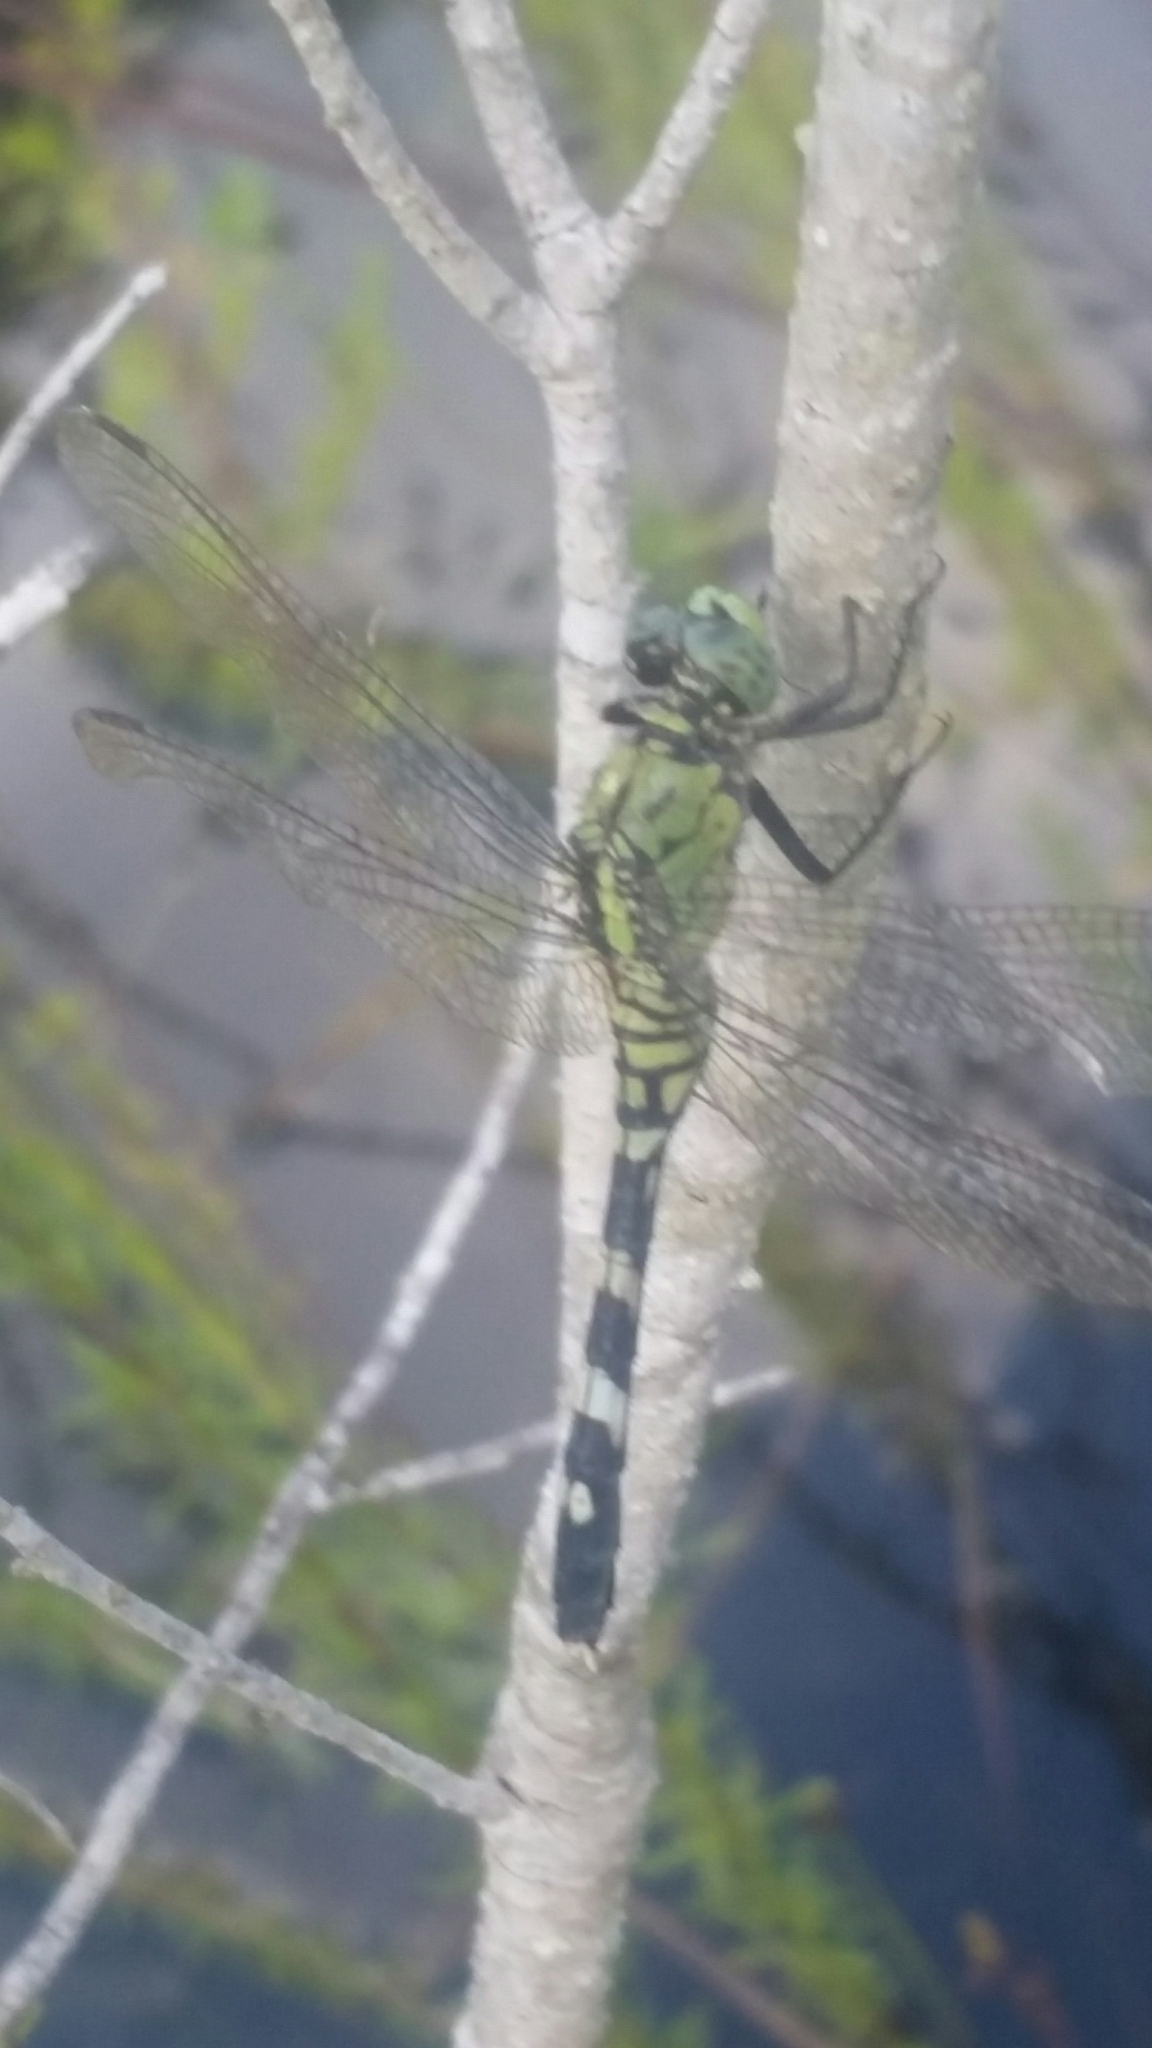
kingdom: Animalia
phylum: Arthropoda
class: Insecta
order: Odonata
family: Libellulidae
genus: Erythemis
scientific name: Erythemis simplicicollis
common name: Eastern pondhawk
